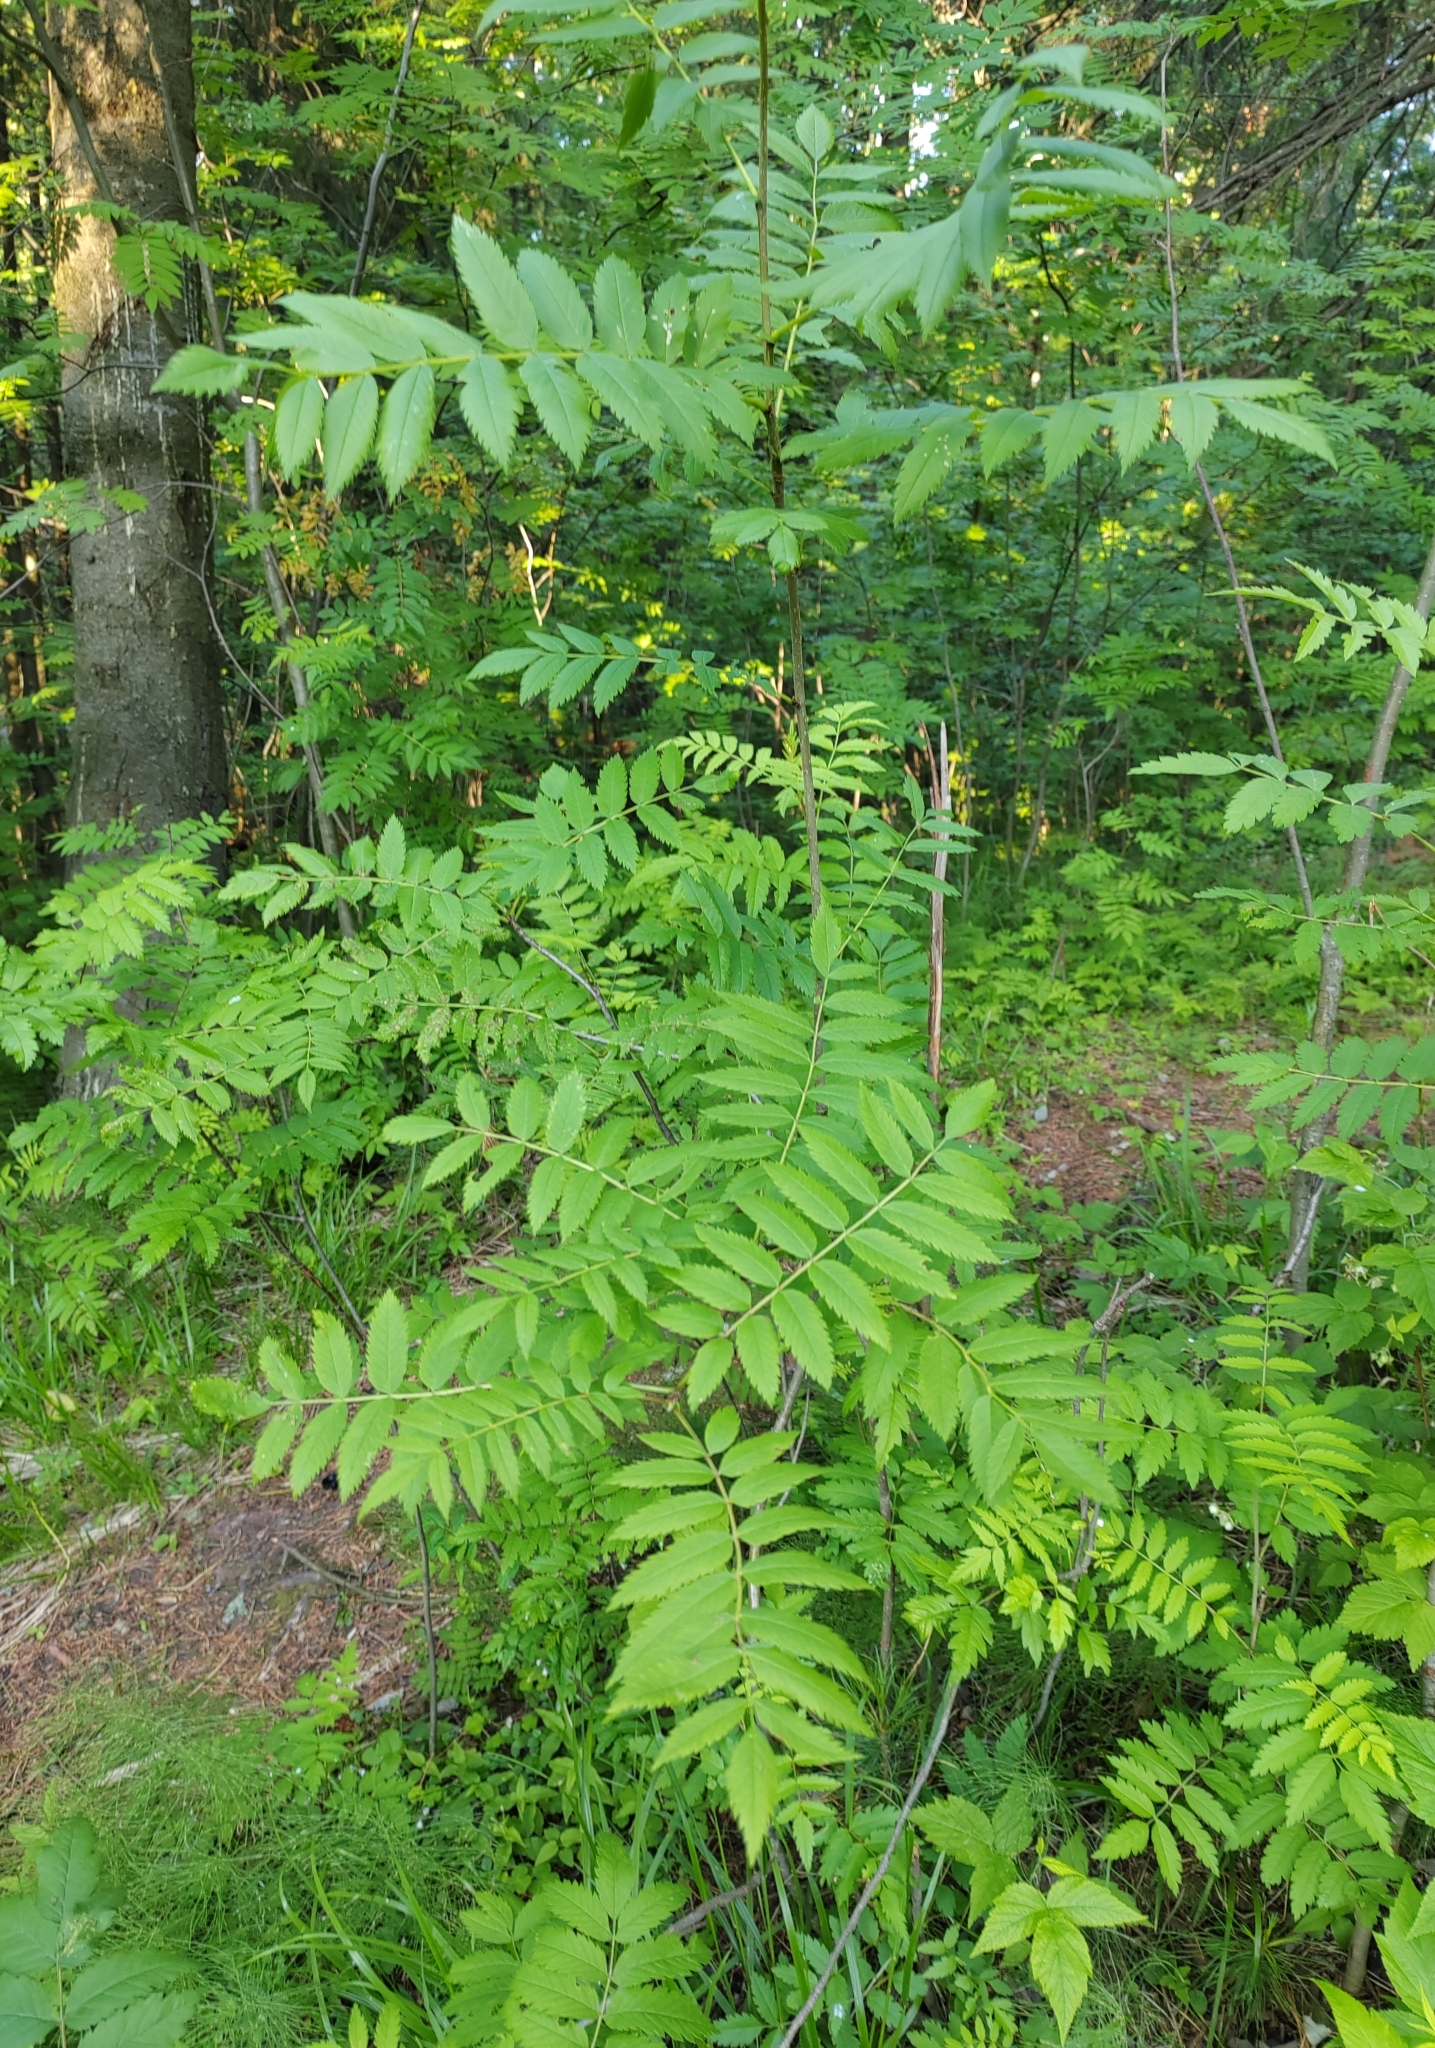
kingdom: Plantae
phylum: Tracheophyta
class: Magnoliopsida
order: Rosales
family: Rosaceae
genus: Sorbus
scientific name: Sorbus aucuparia
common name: Rowan
